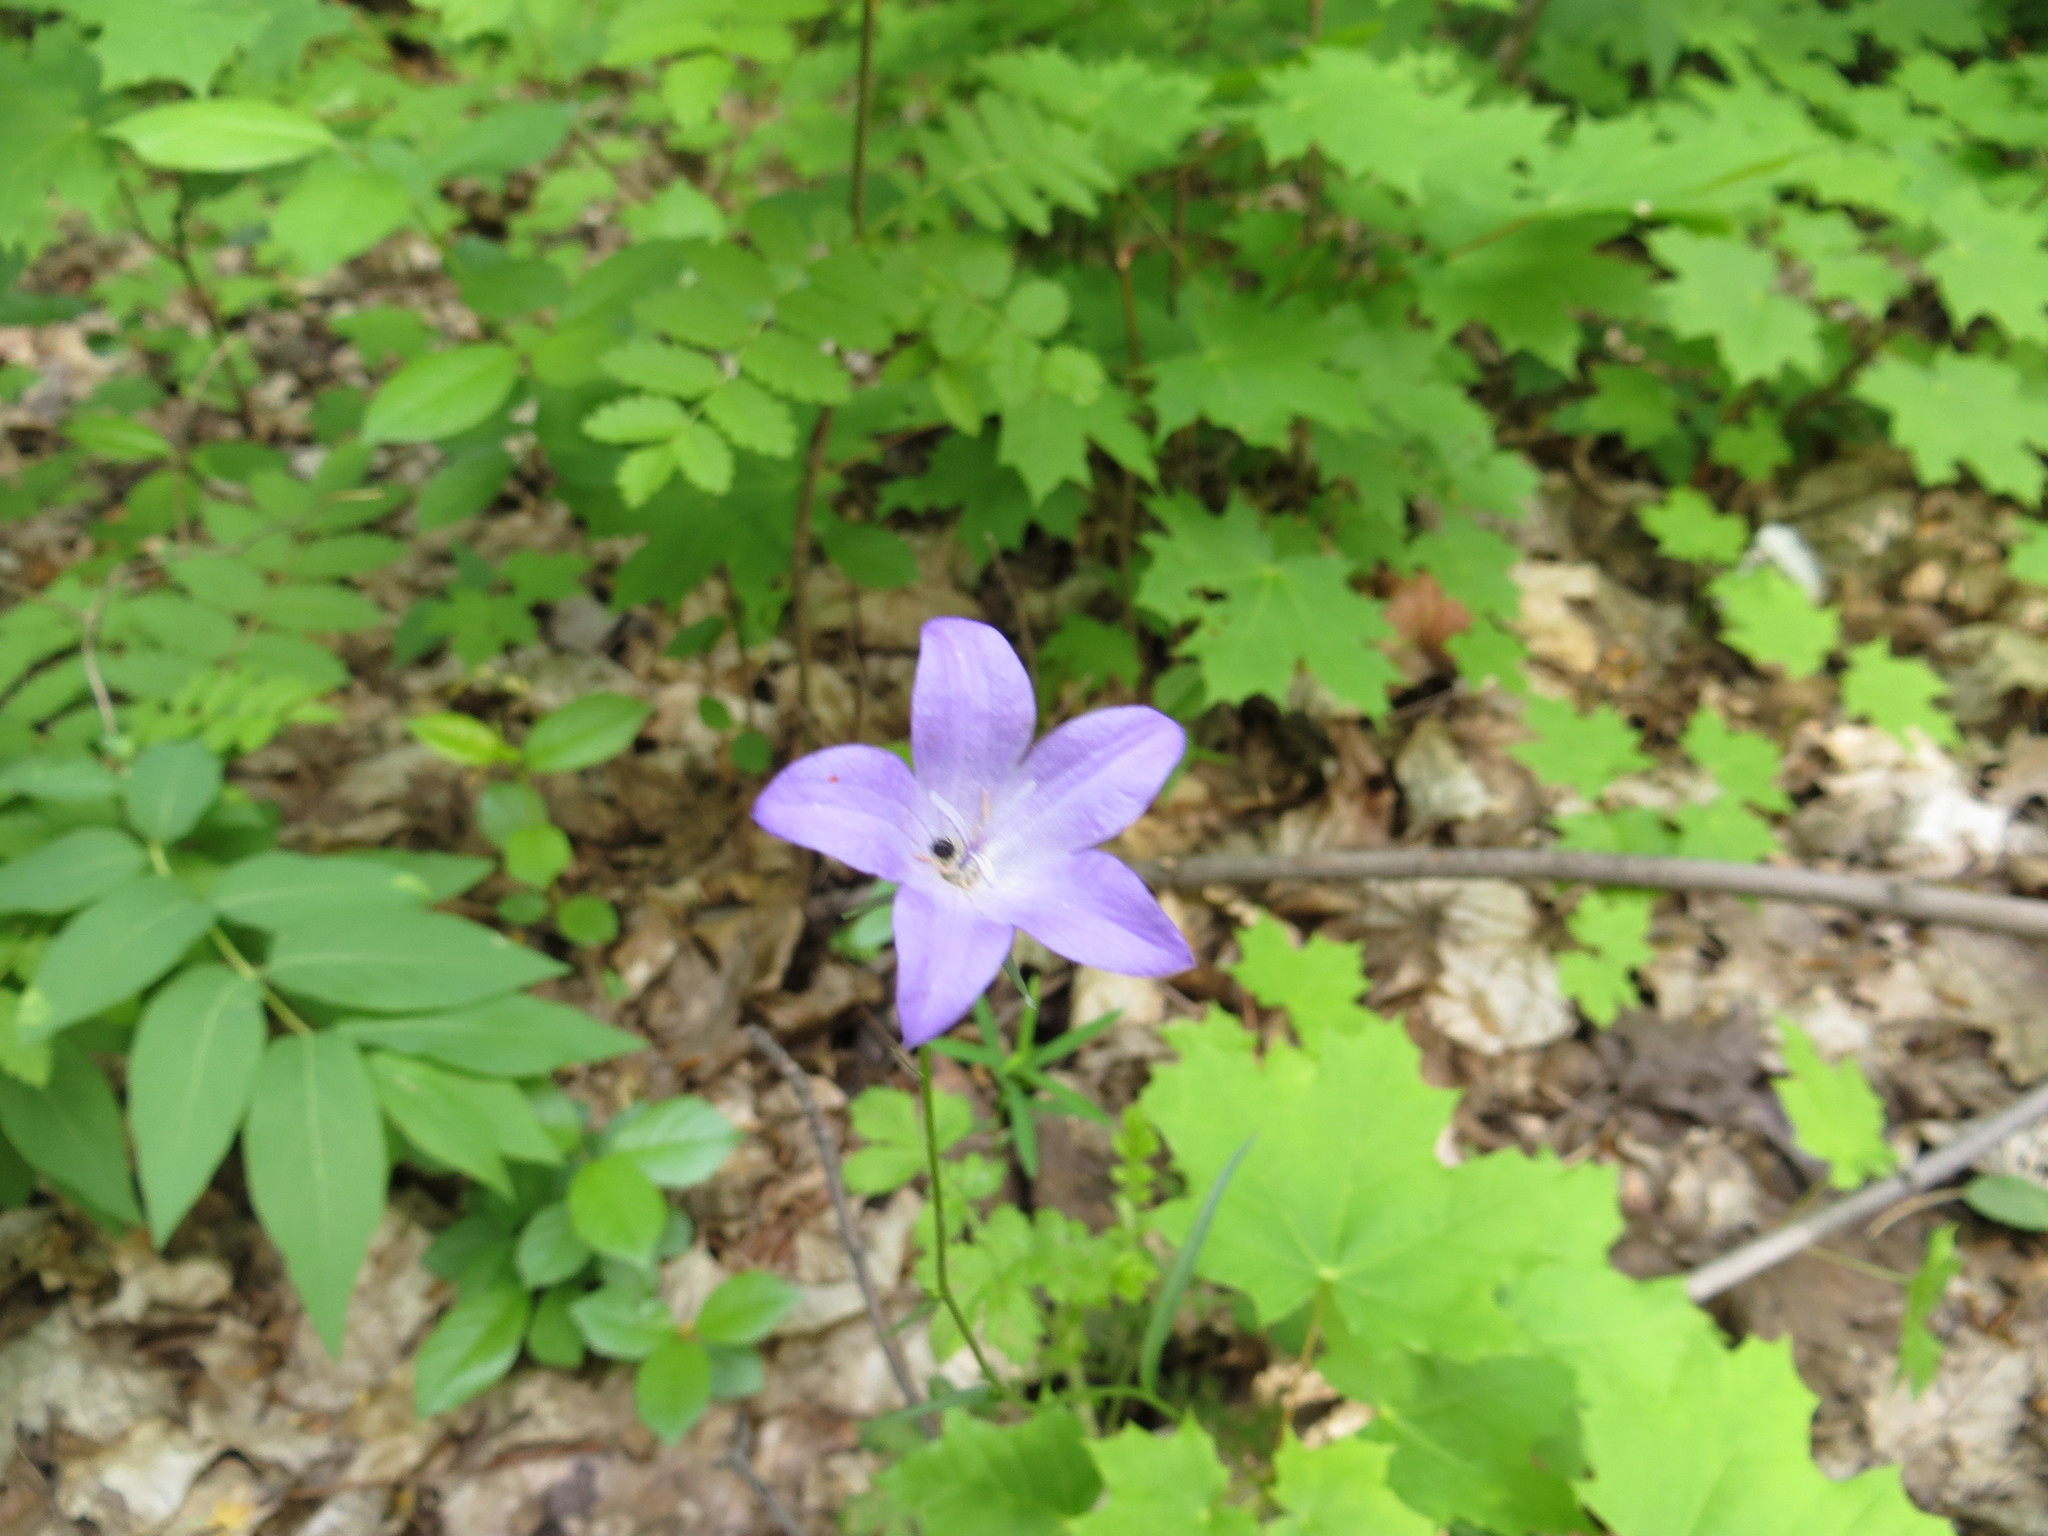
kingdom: Plantae
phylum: Tracheophyta
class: Magnoliopsida
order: Asterales
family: Campanulaceae
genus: Campanula
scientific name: Campanula stevenii
